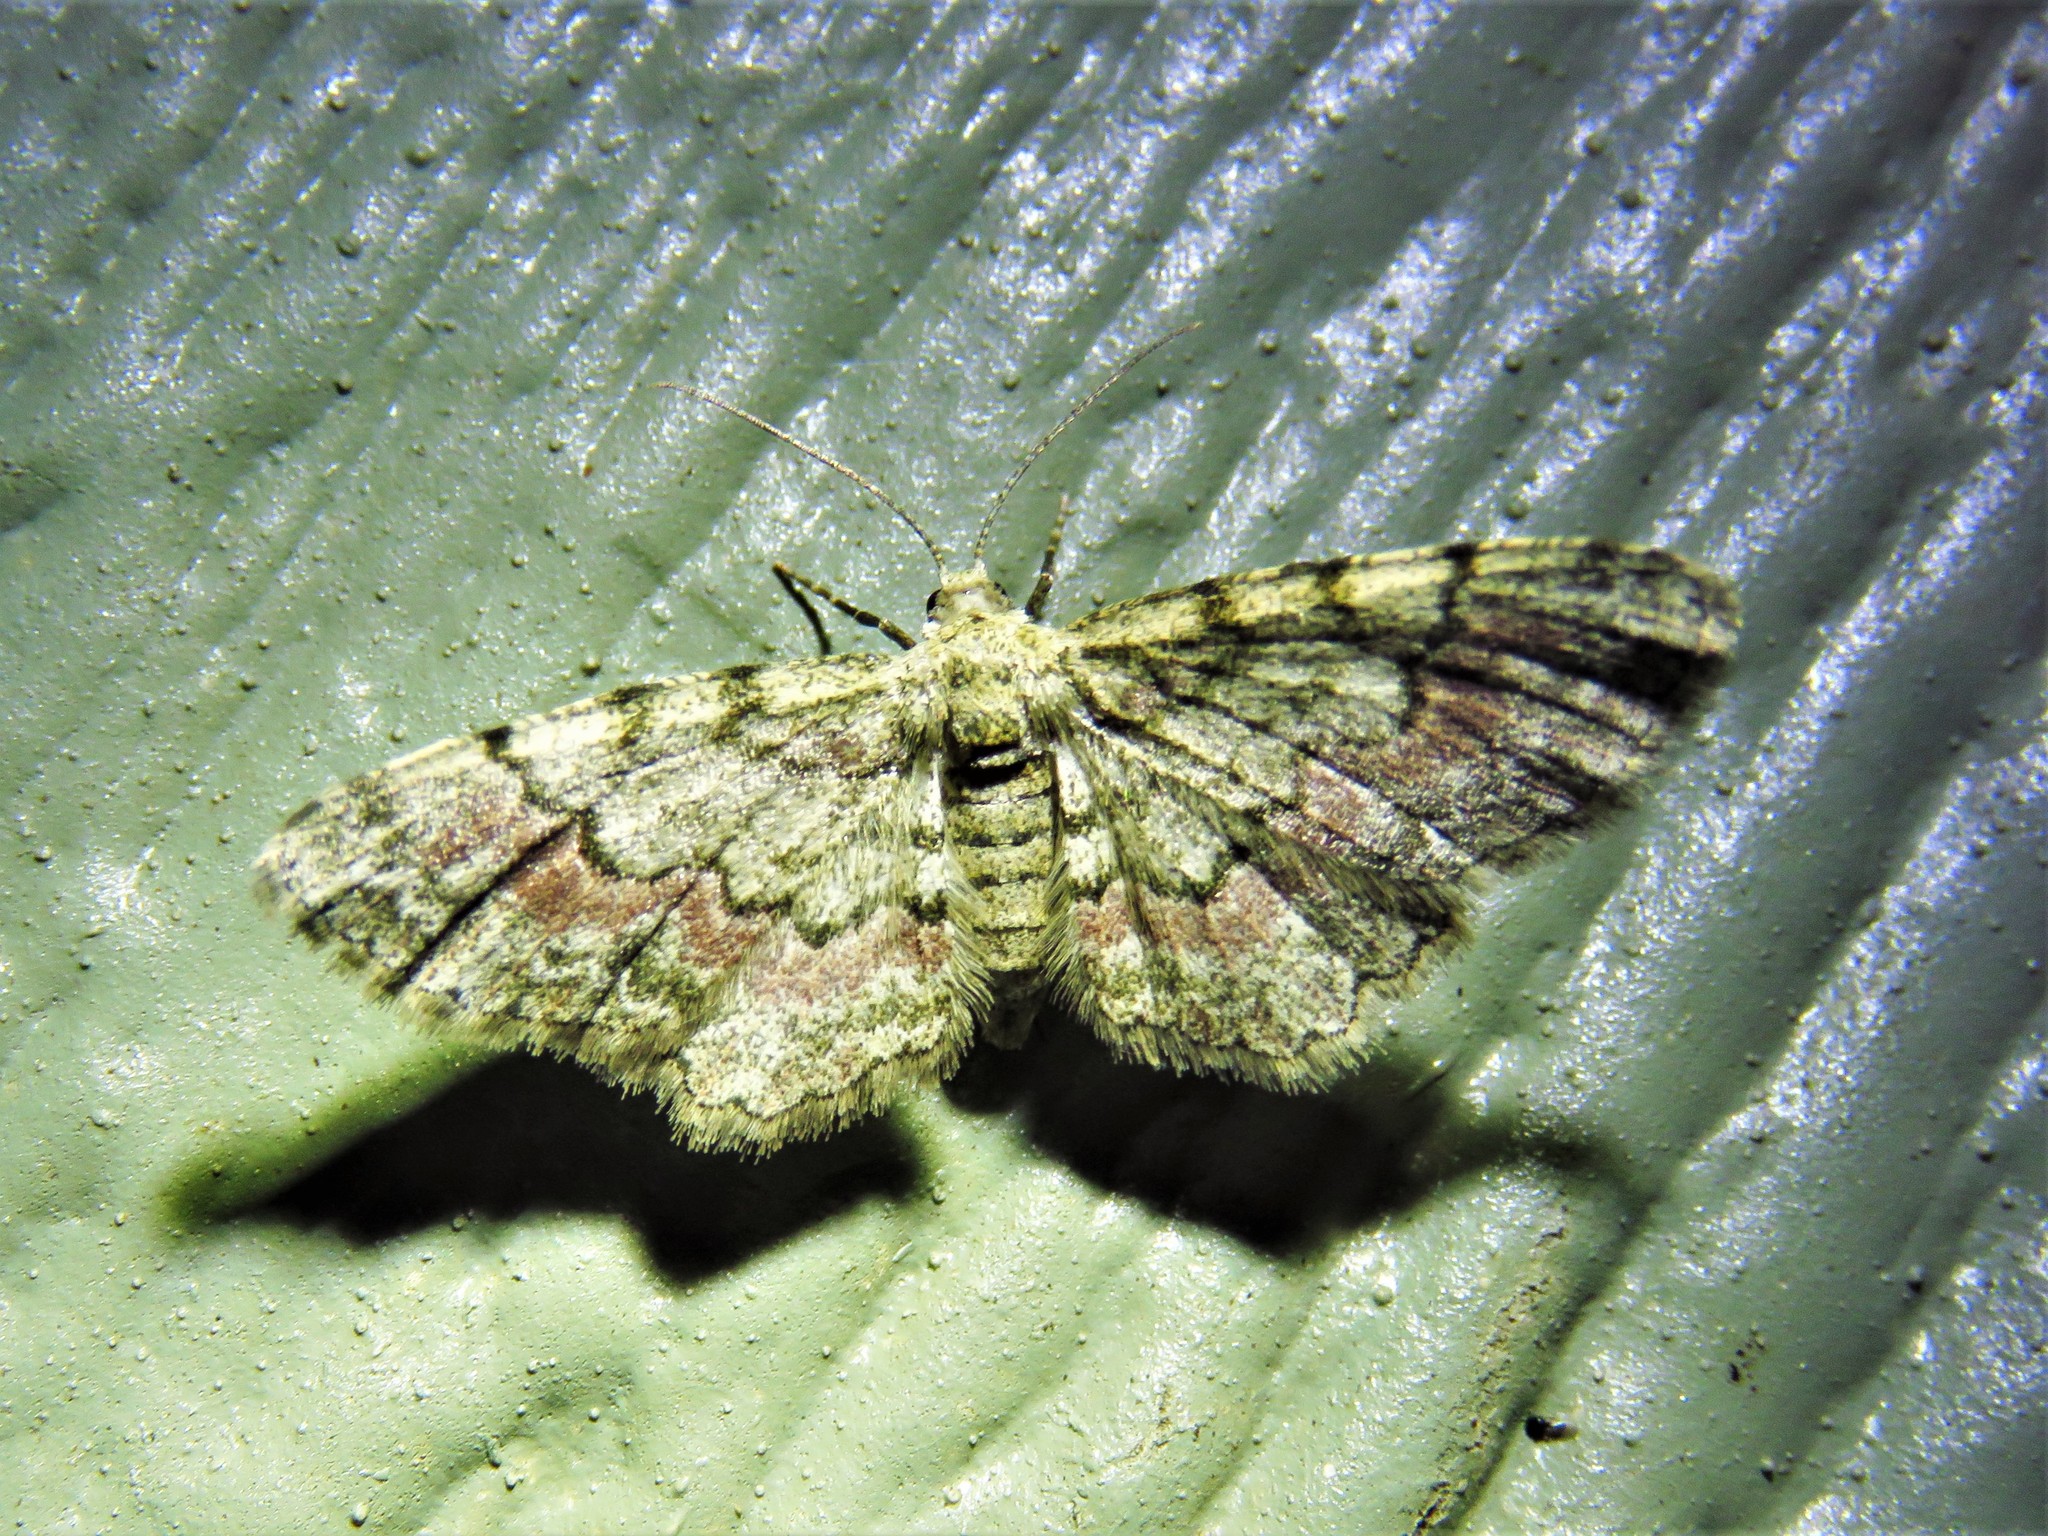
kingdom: Animalia
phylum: Arthropoda
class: Insecta
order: Lepidoptera
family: Geometridae
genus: Glenoides
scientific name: Glenoides texanaria
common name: Texas gray
